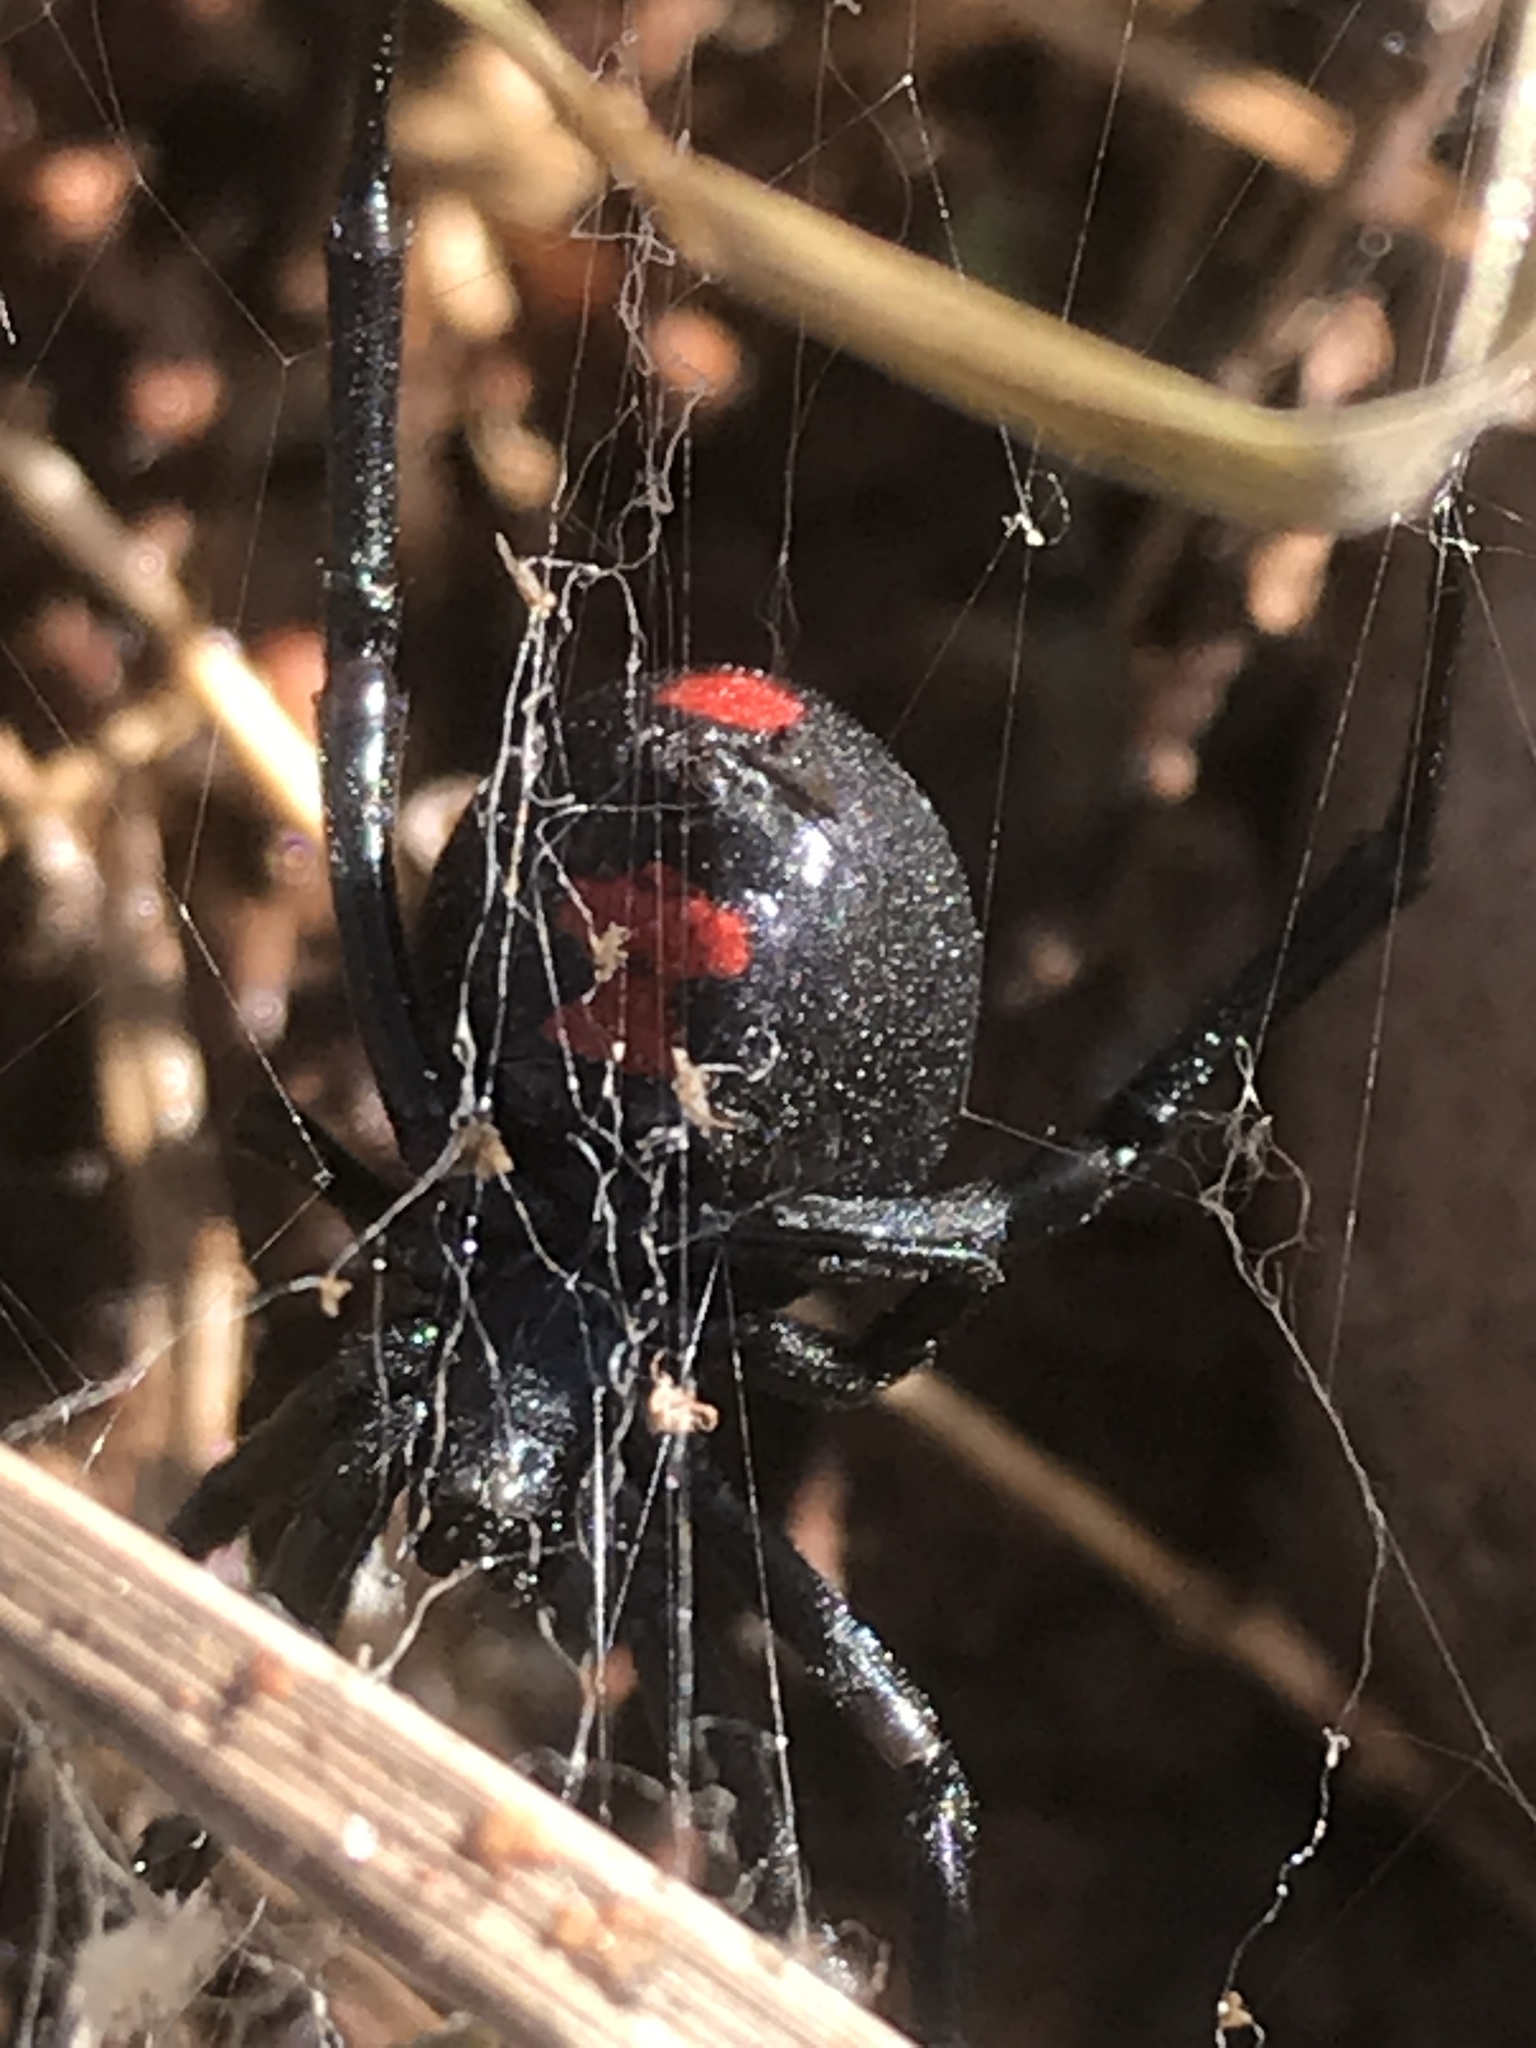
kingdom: Animalia
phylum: Arthropoda
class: Arachnida
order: Araneae
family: Theridiidae
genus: Latrodectus
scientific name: Latrodectus mactans
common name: Cobweb spiders
